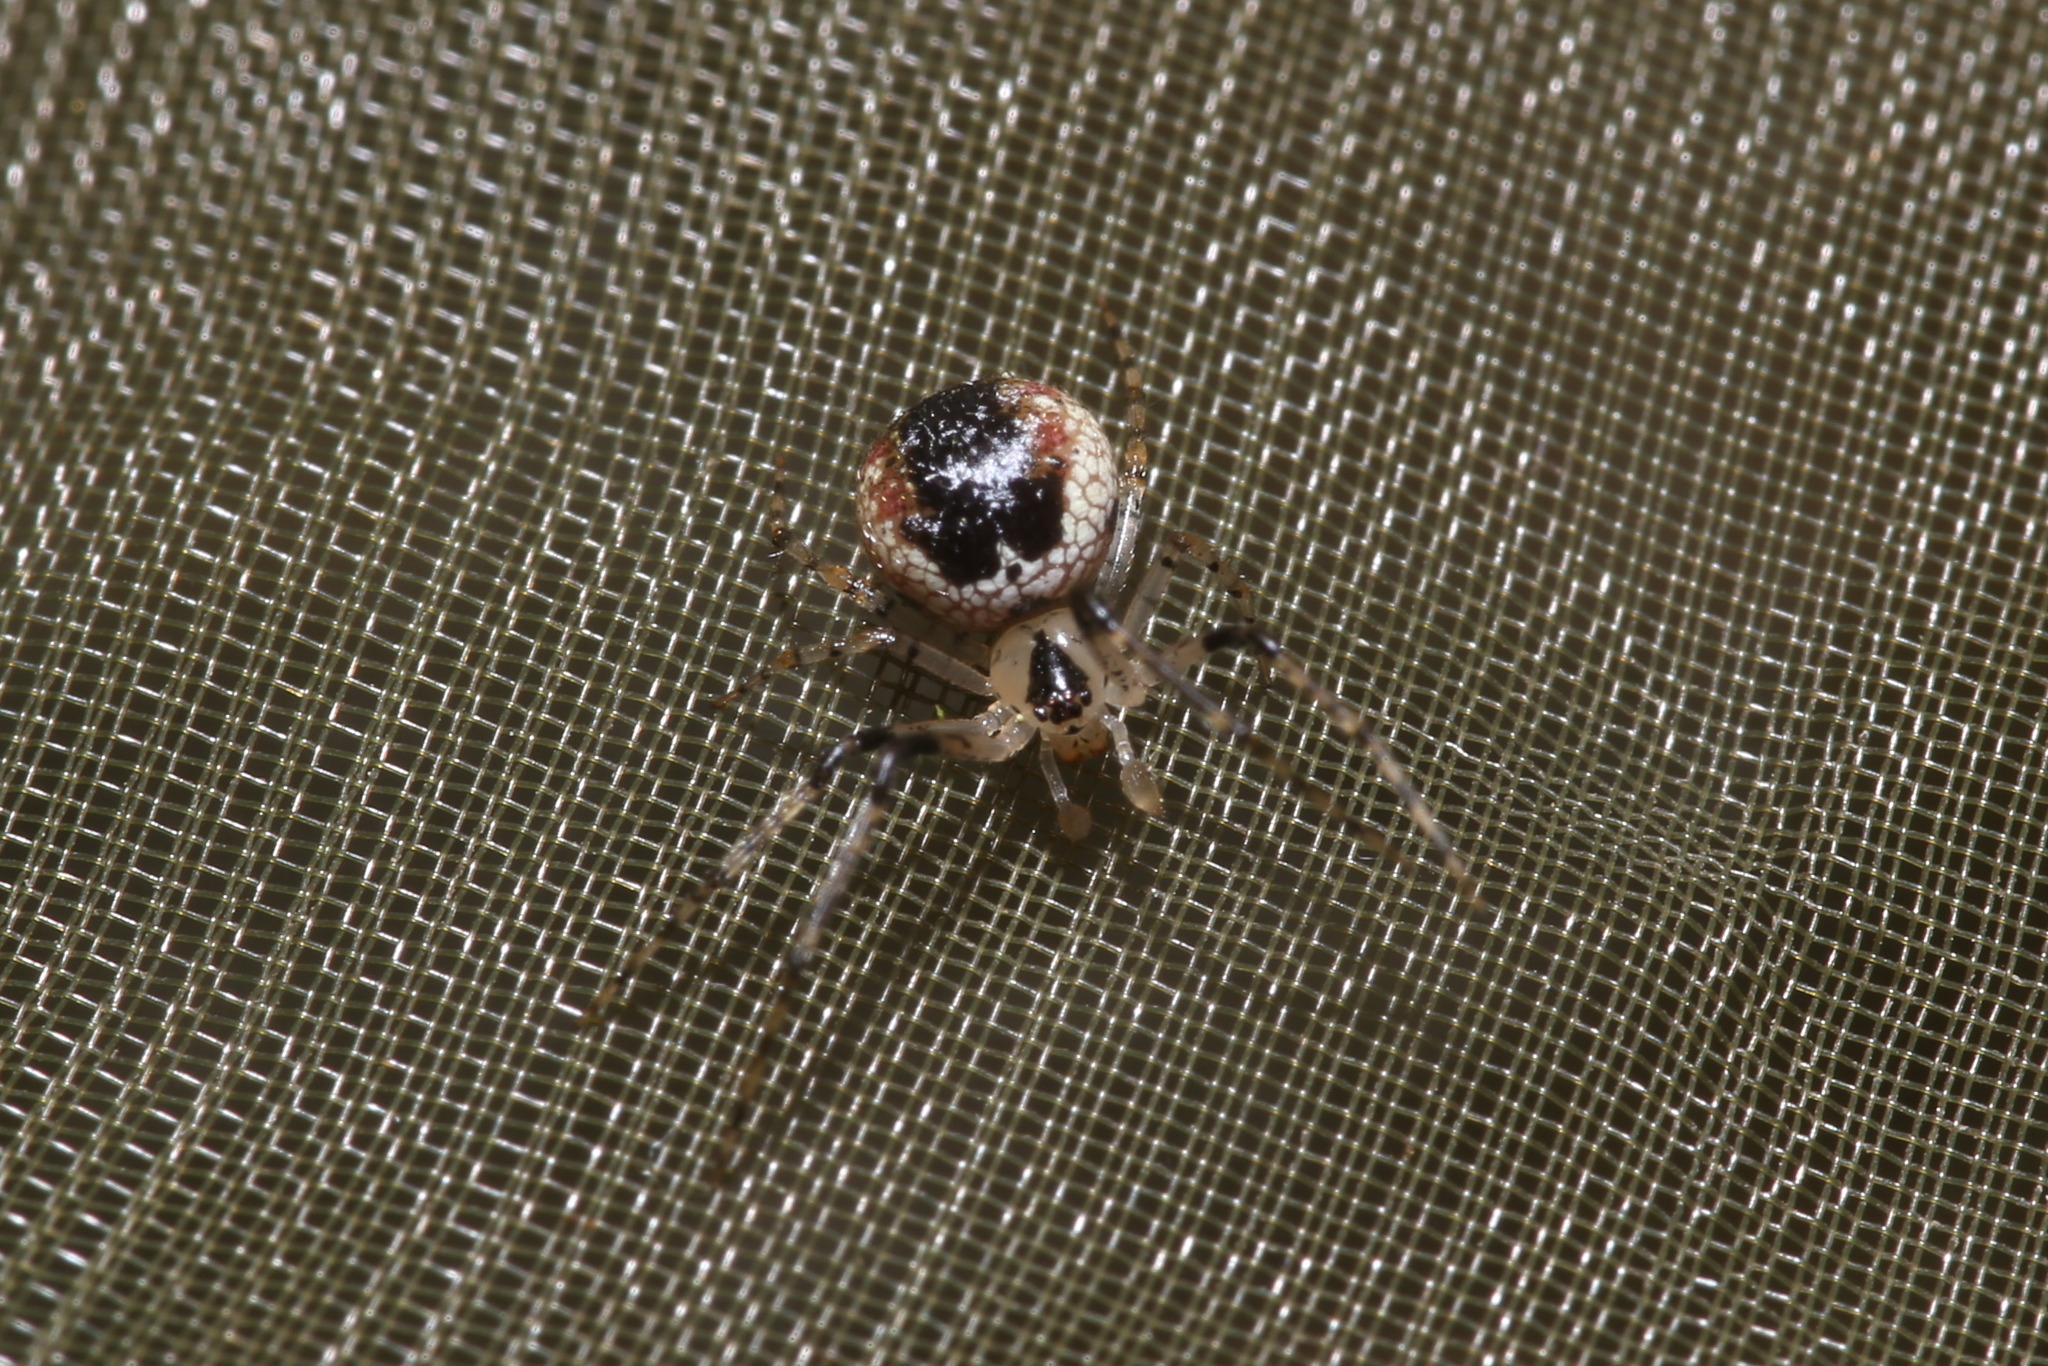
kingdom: Animalia
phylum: Arthropoda
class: Arachnida
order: Araneae
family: Theridiidae
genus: Platnickina
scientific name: Platnickina tincta
